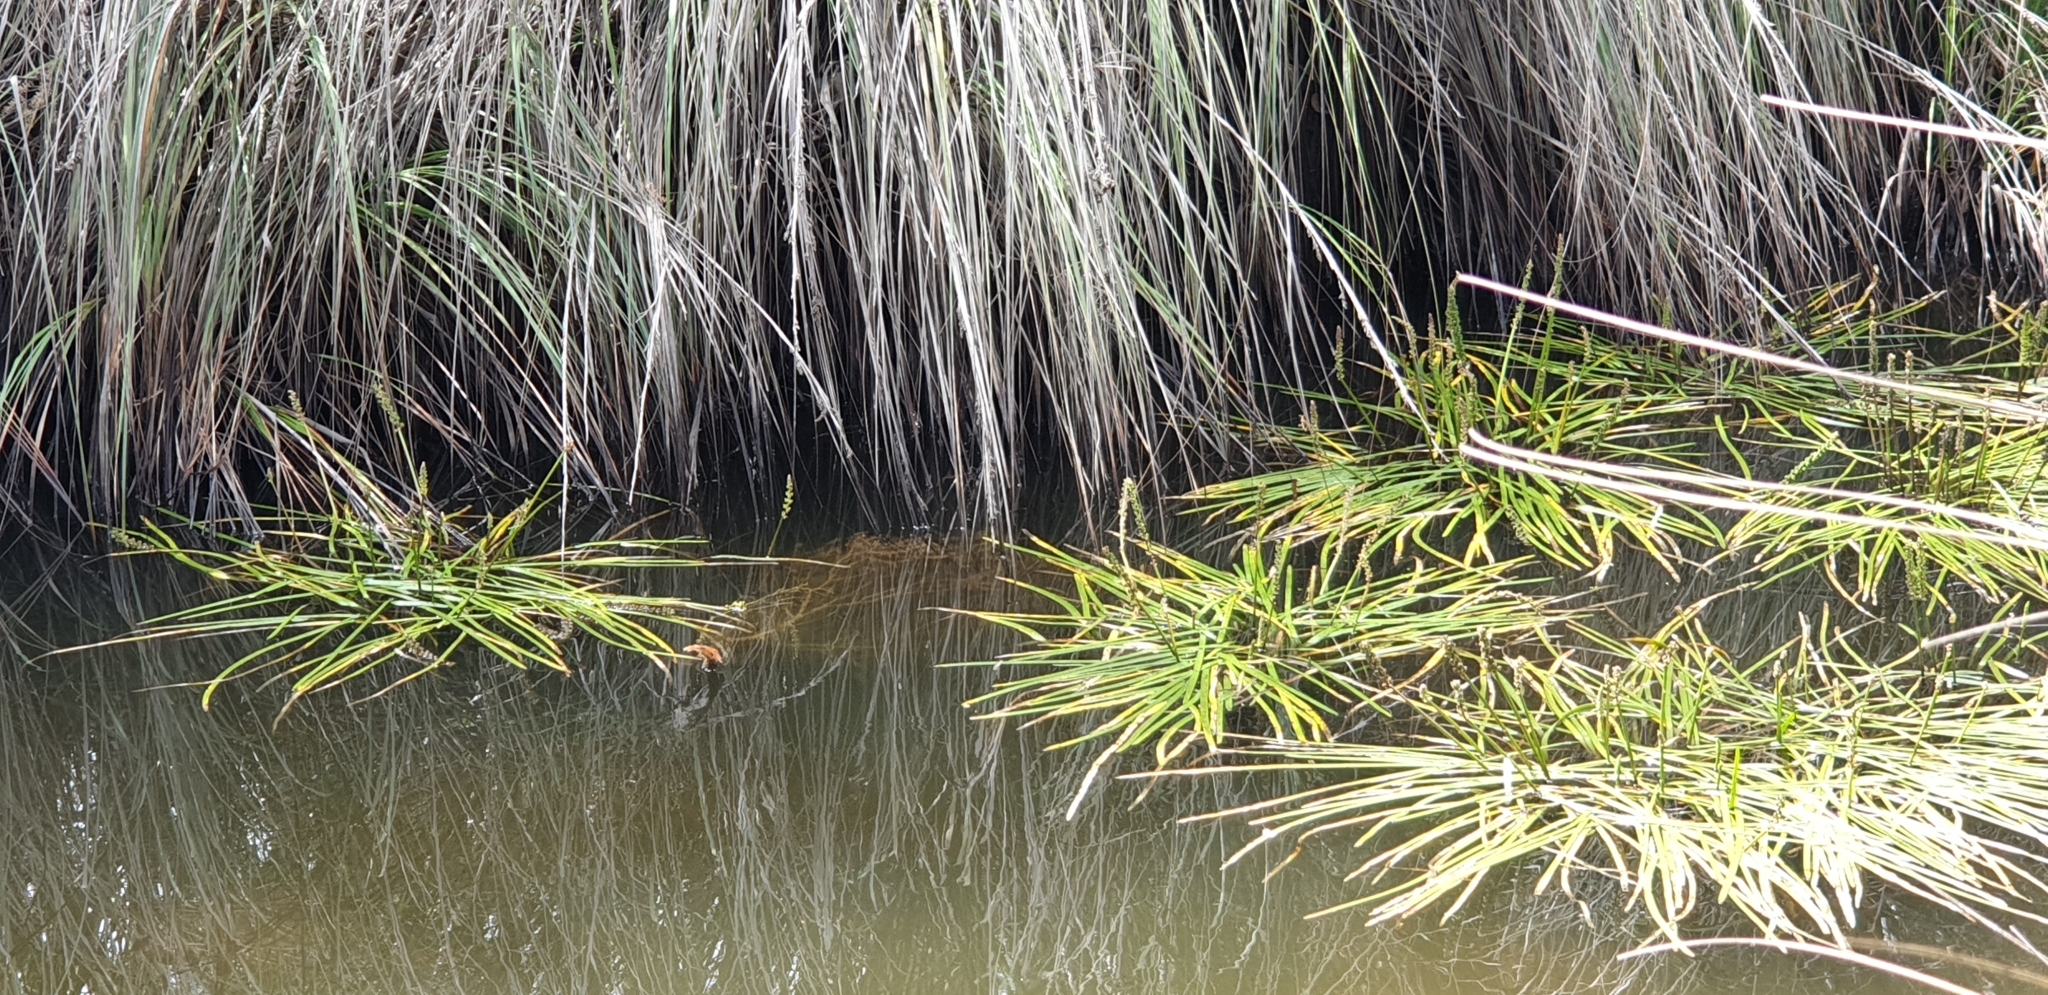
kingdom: Plantae
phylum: Tracheophyta
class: Liliopsida
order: Alismatales
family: Juncaginaceae
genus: Cycnogeton
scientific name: Cycnogeton alcockiae
